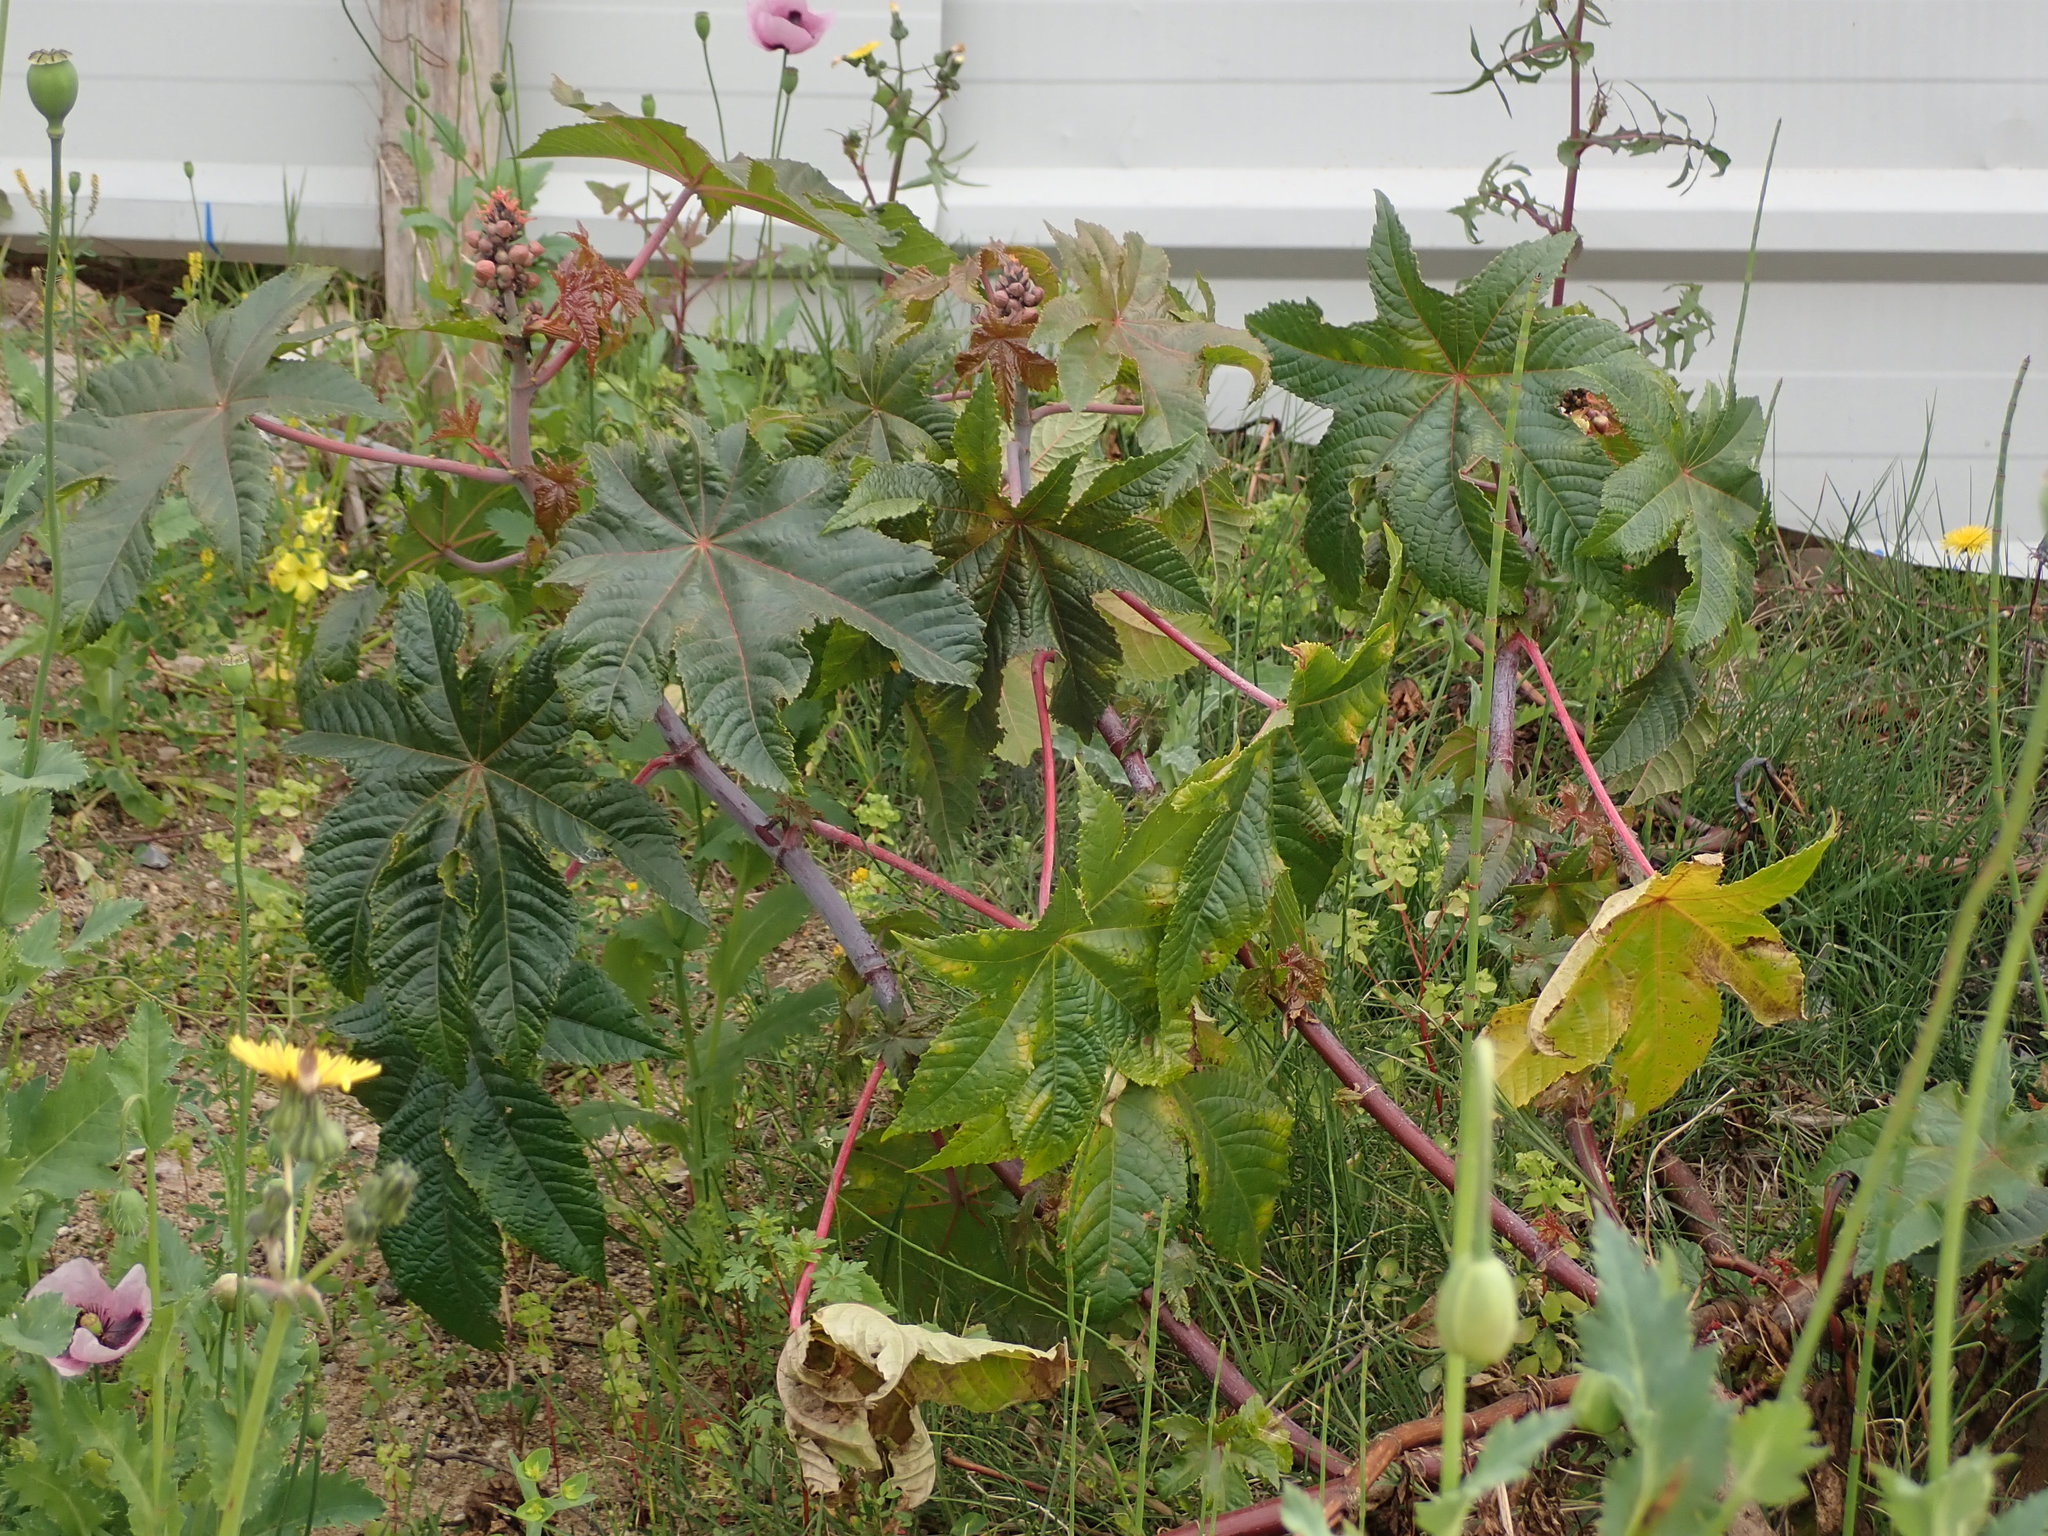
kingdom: Plantae
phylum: Tracheophyta
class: Magnoliopsida
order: Malpighiales
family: Euphorbiaceae
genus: Ricinus
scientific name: Ricinus communis
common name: Castor-oil-plant
